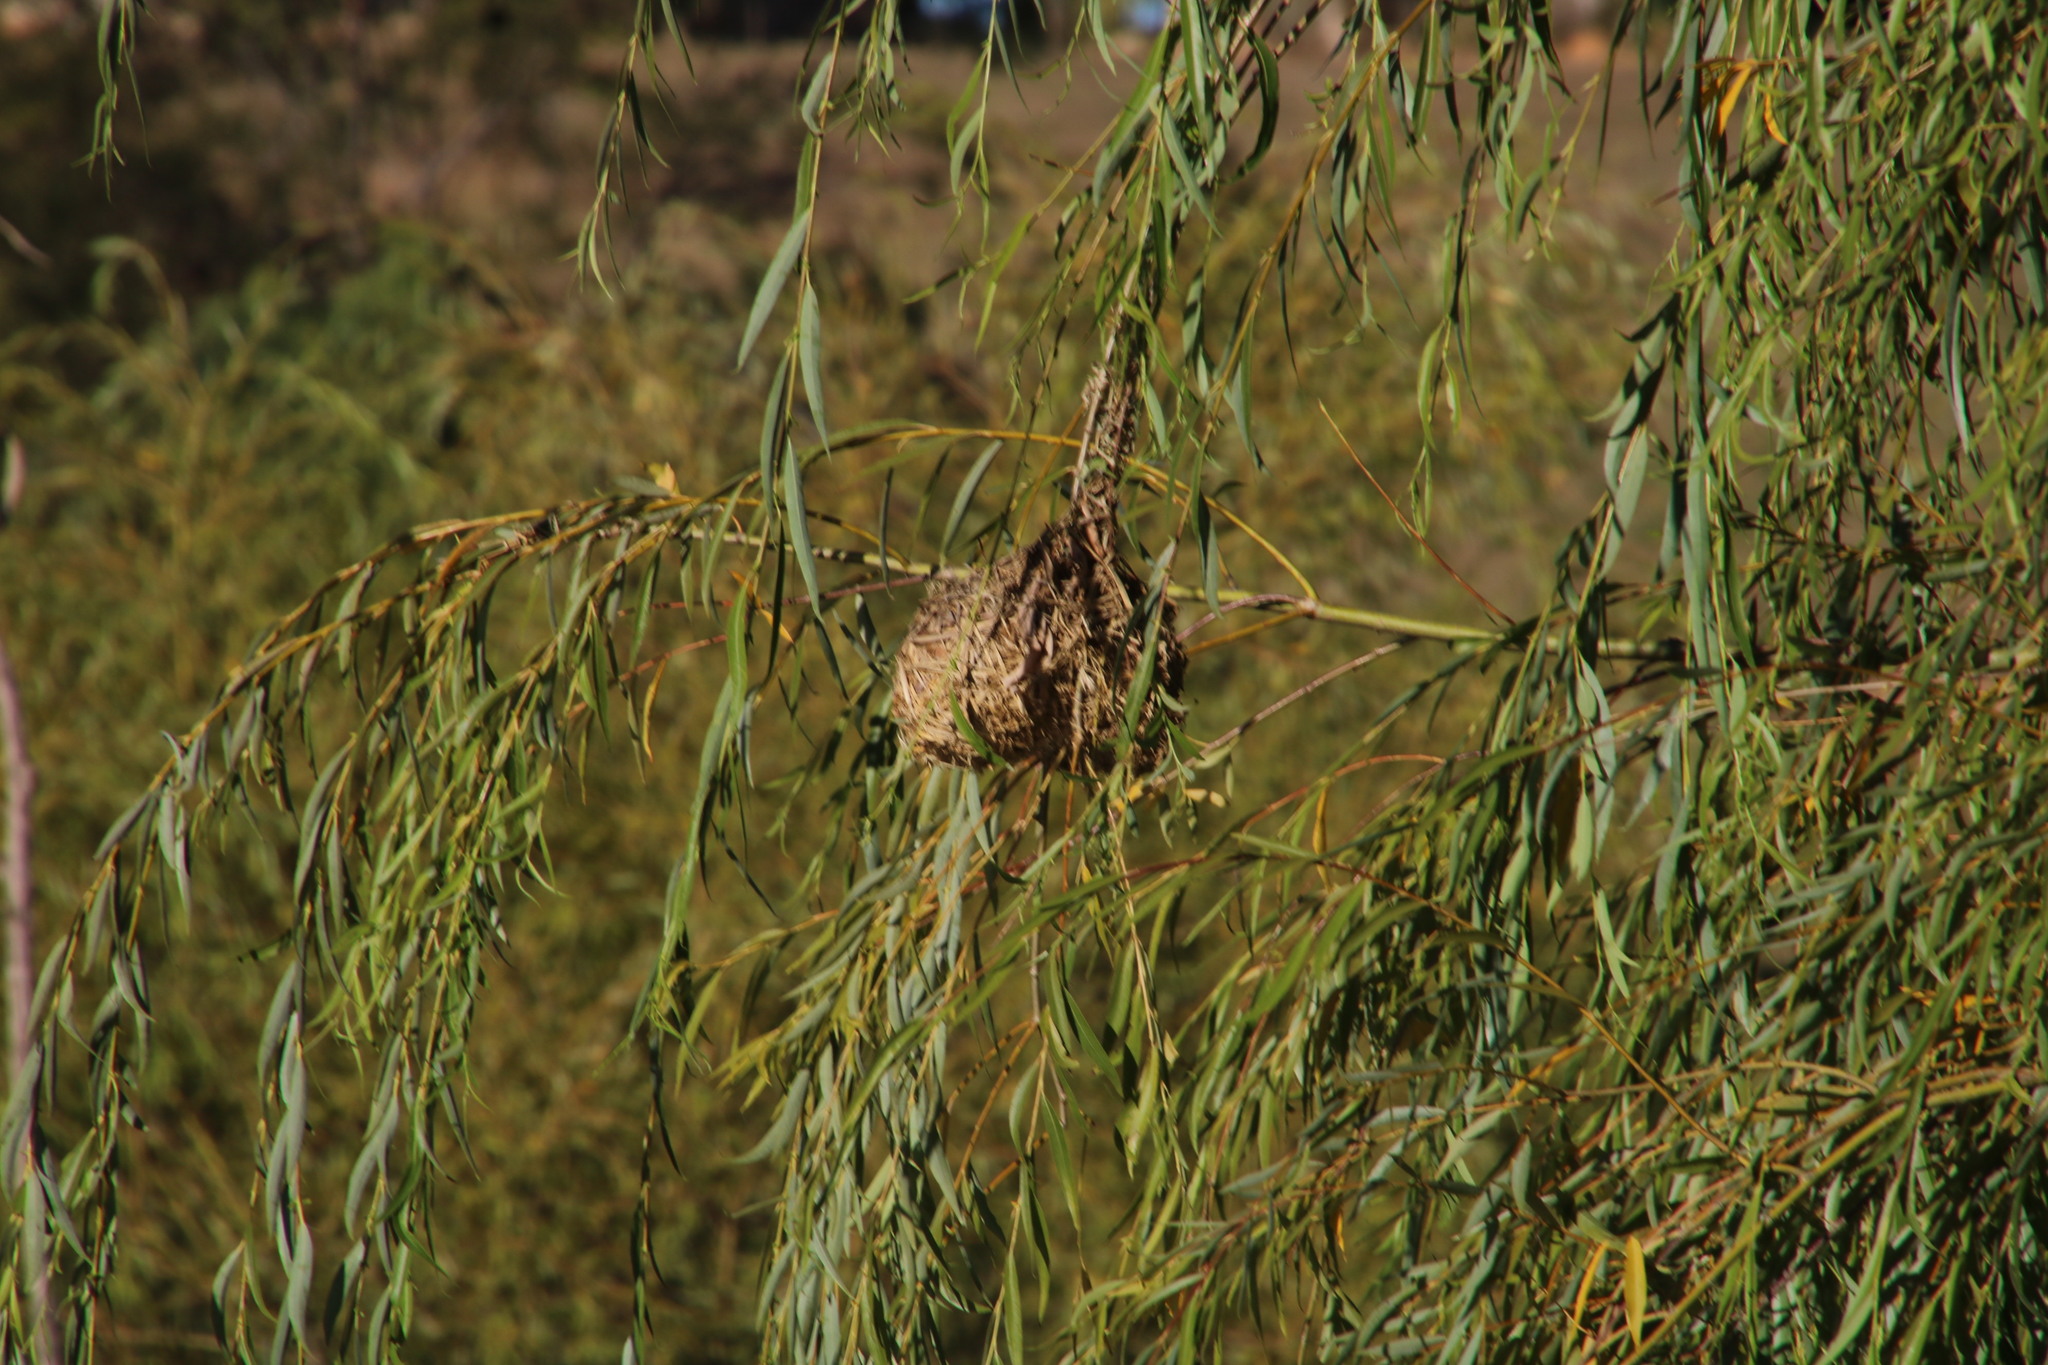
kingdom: Animalia
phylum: Chordata
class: Aves
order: Passeriformes
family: Ploceidae
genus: Ploceus
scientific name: Ploceus capensis
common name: Cape weaver
